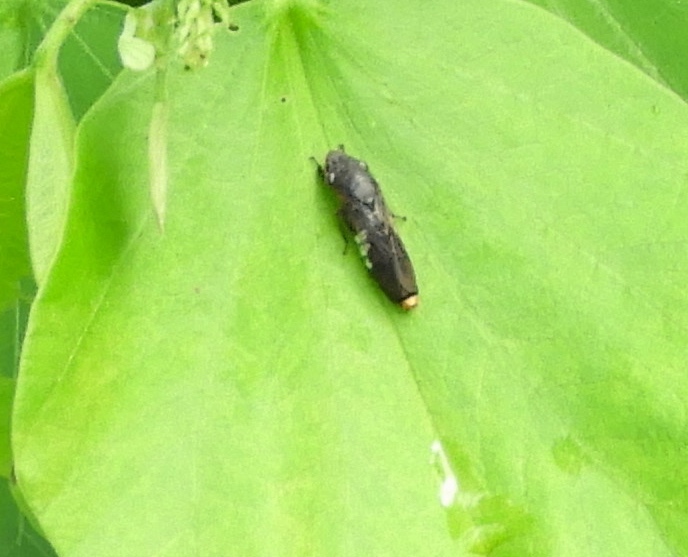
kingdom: Animalia
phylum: Arthropoda
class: Insecta
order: Hemiptera
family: Cicadellidae
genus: Homalodisca
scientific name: Homalodisca
